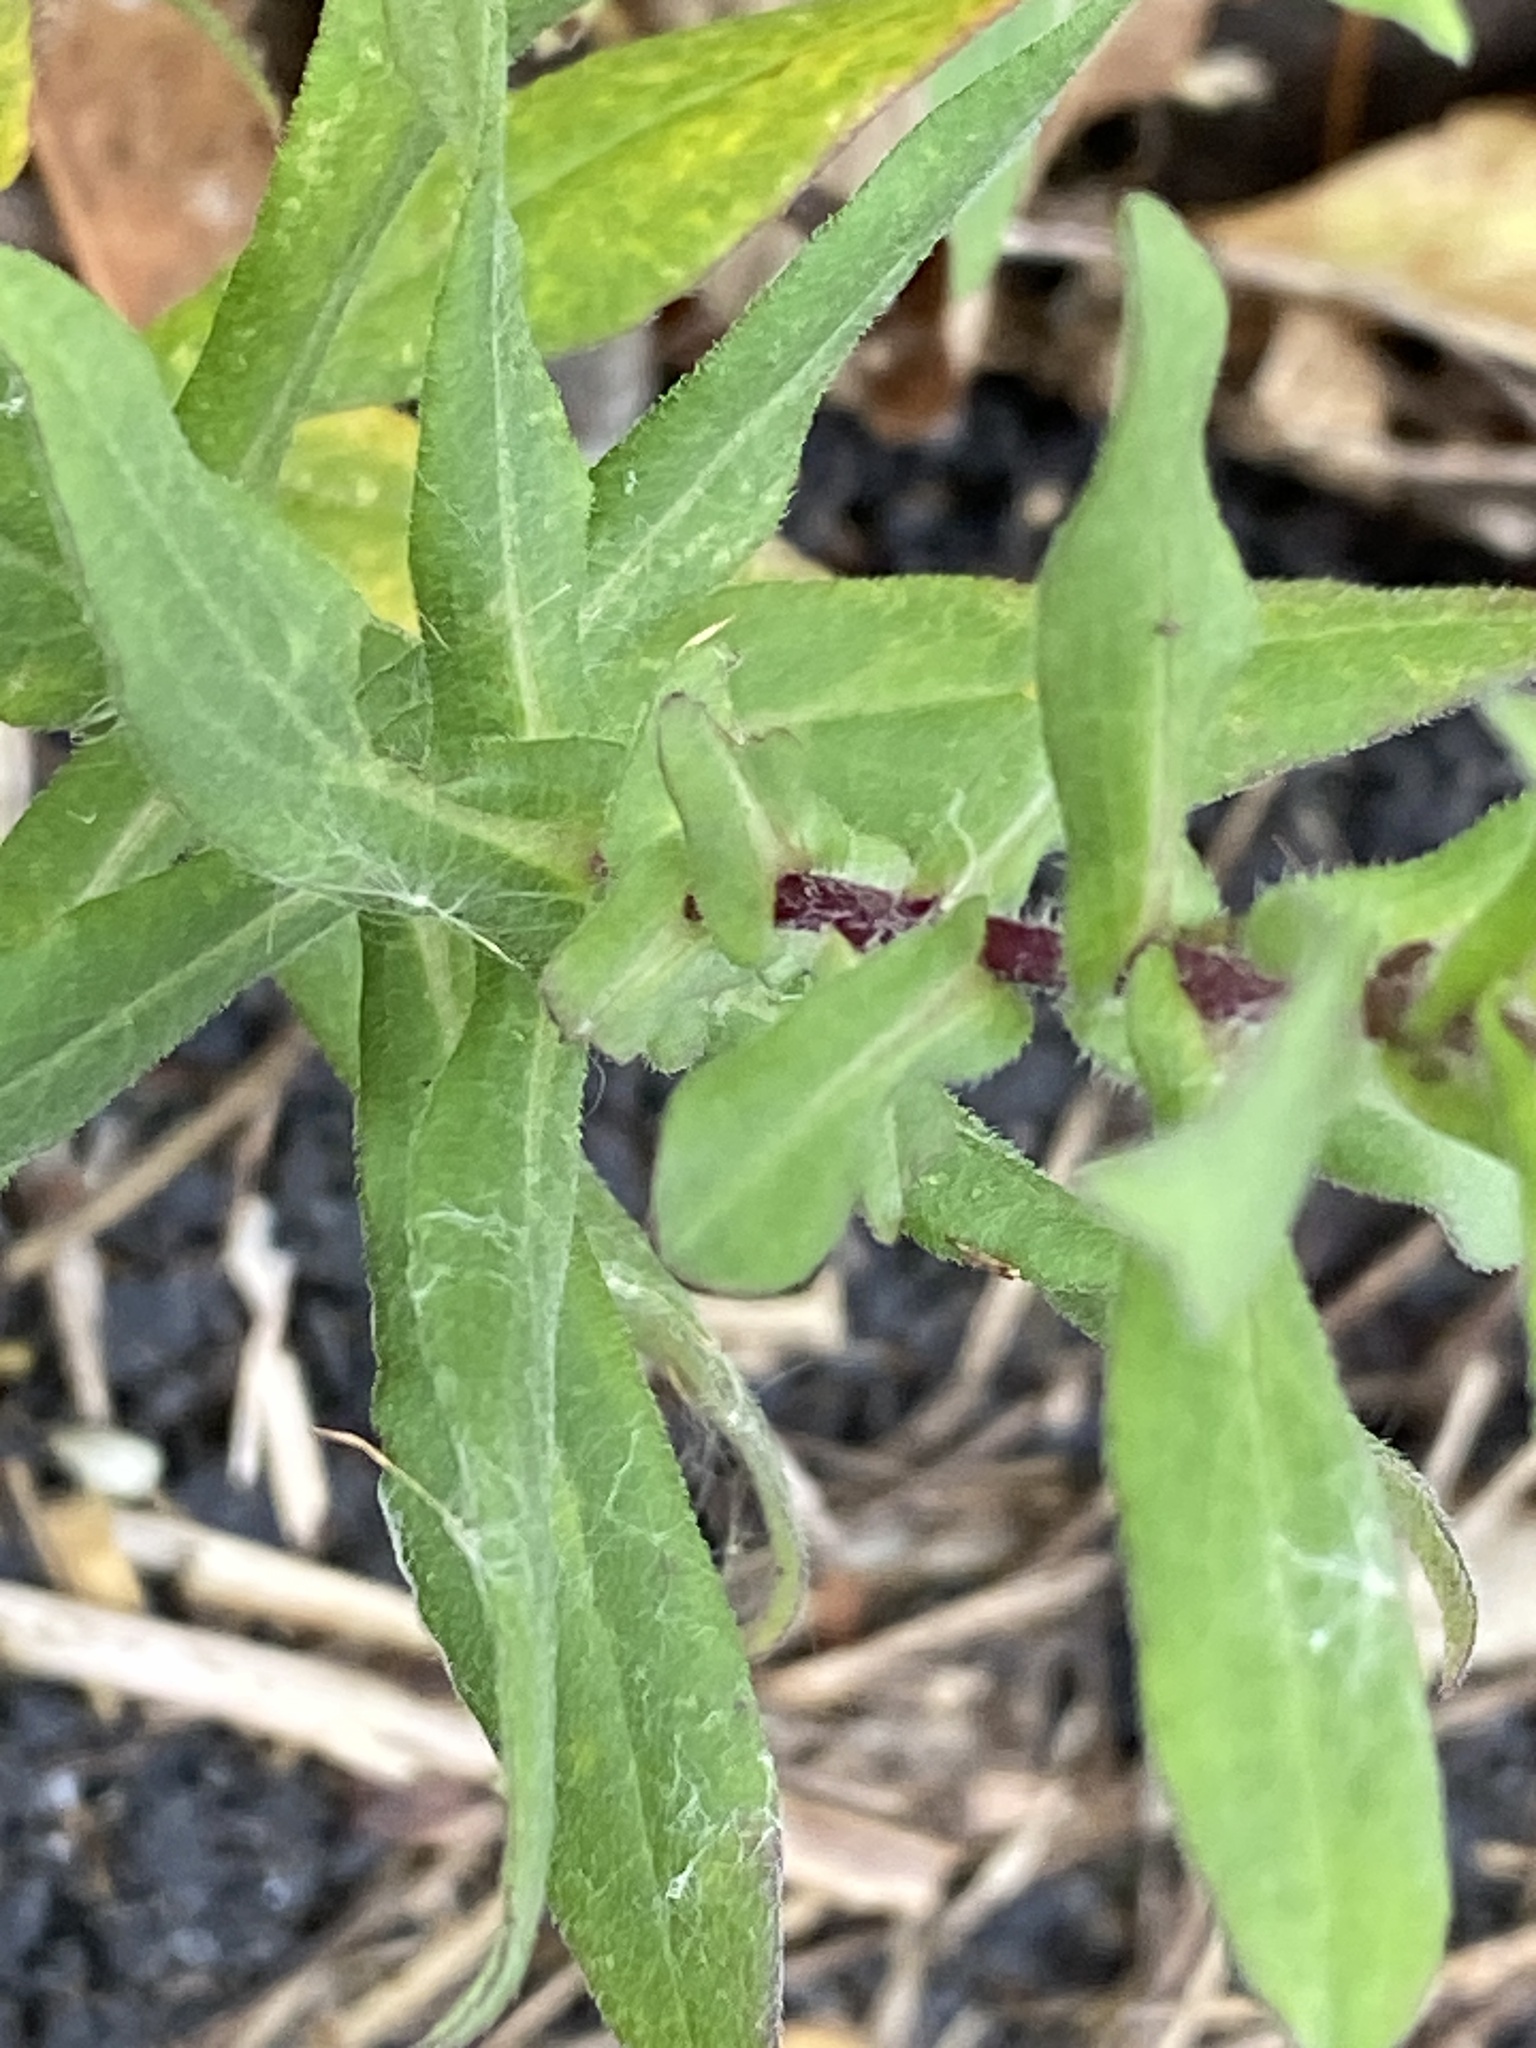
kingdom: Plantae
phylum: Tracheophyta
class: Magnoliopsida
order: Asterales
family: Asteraceae
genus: Symphyotrichum
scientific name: Symphyotrichum novae-angliae
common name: Michaelmas daisy
